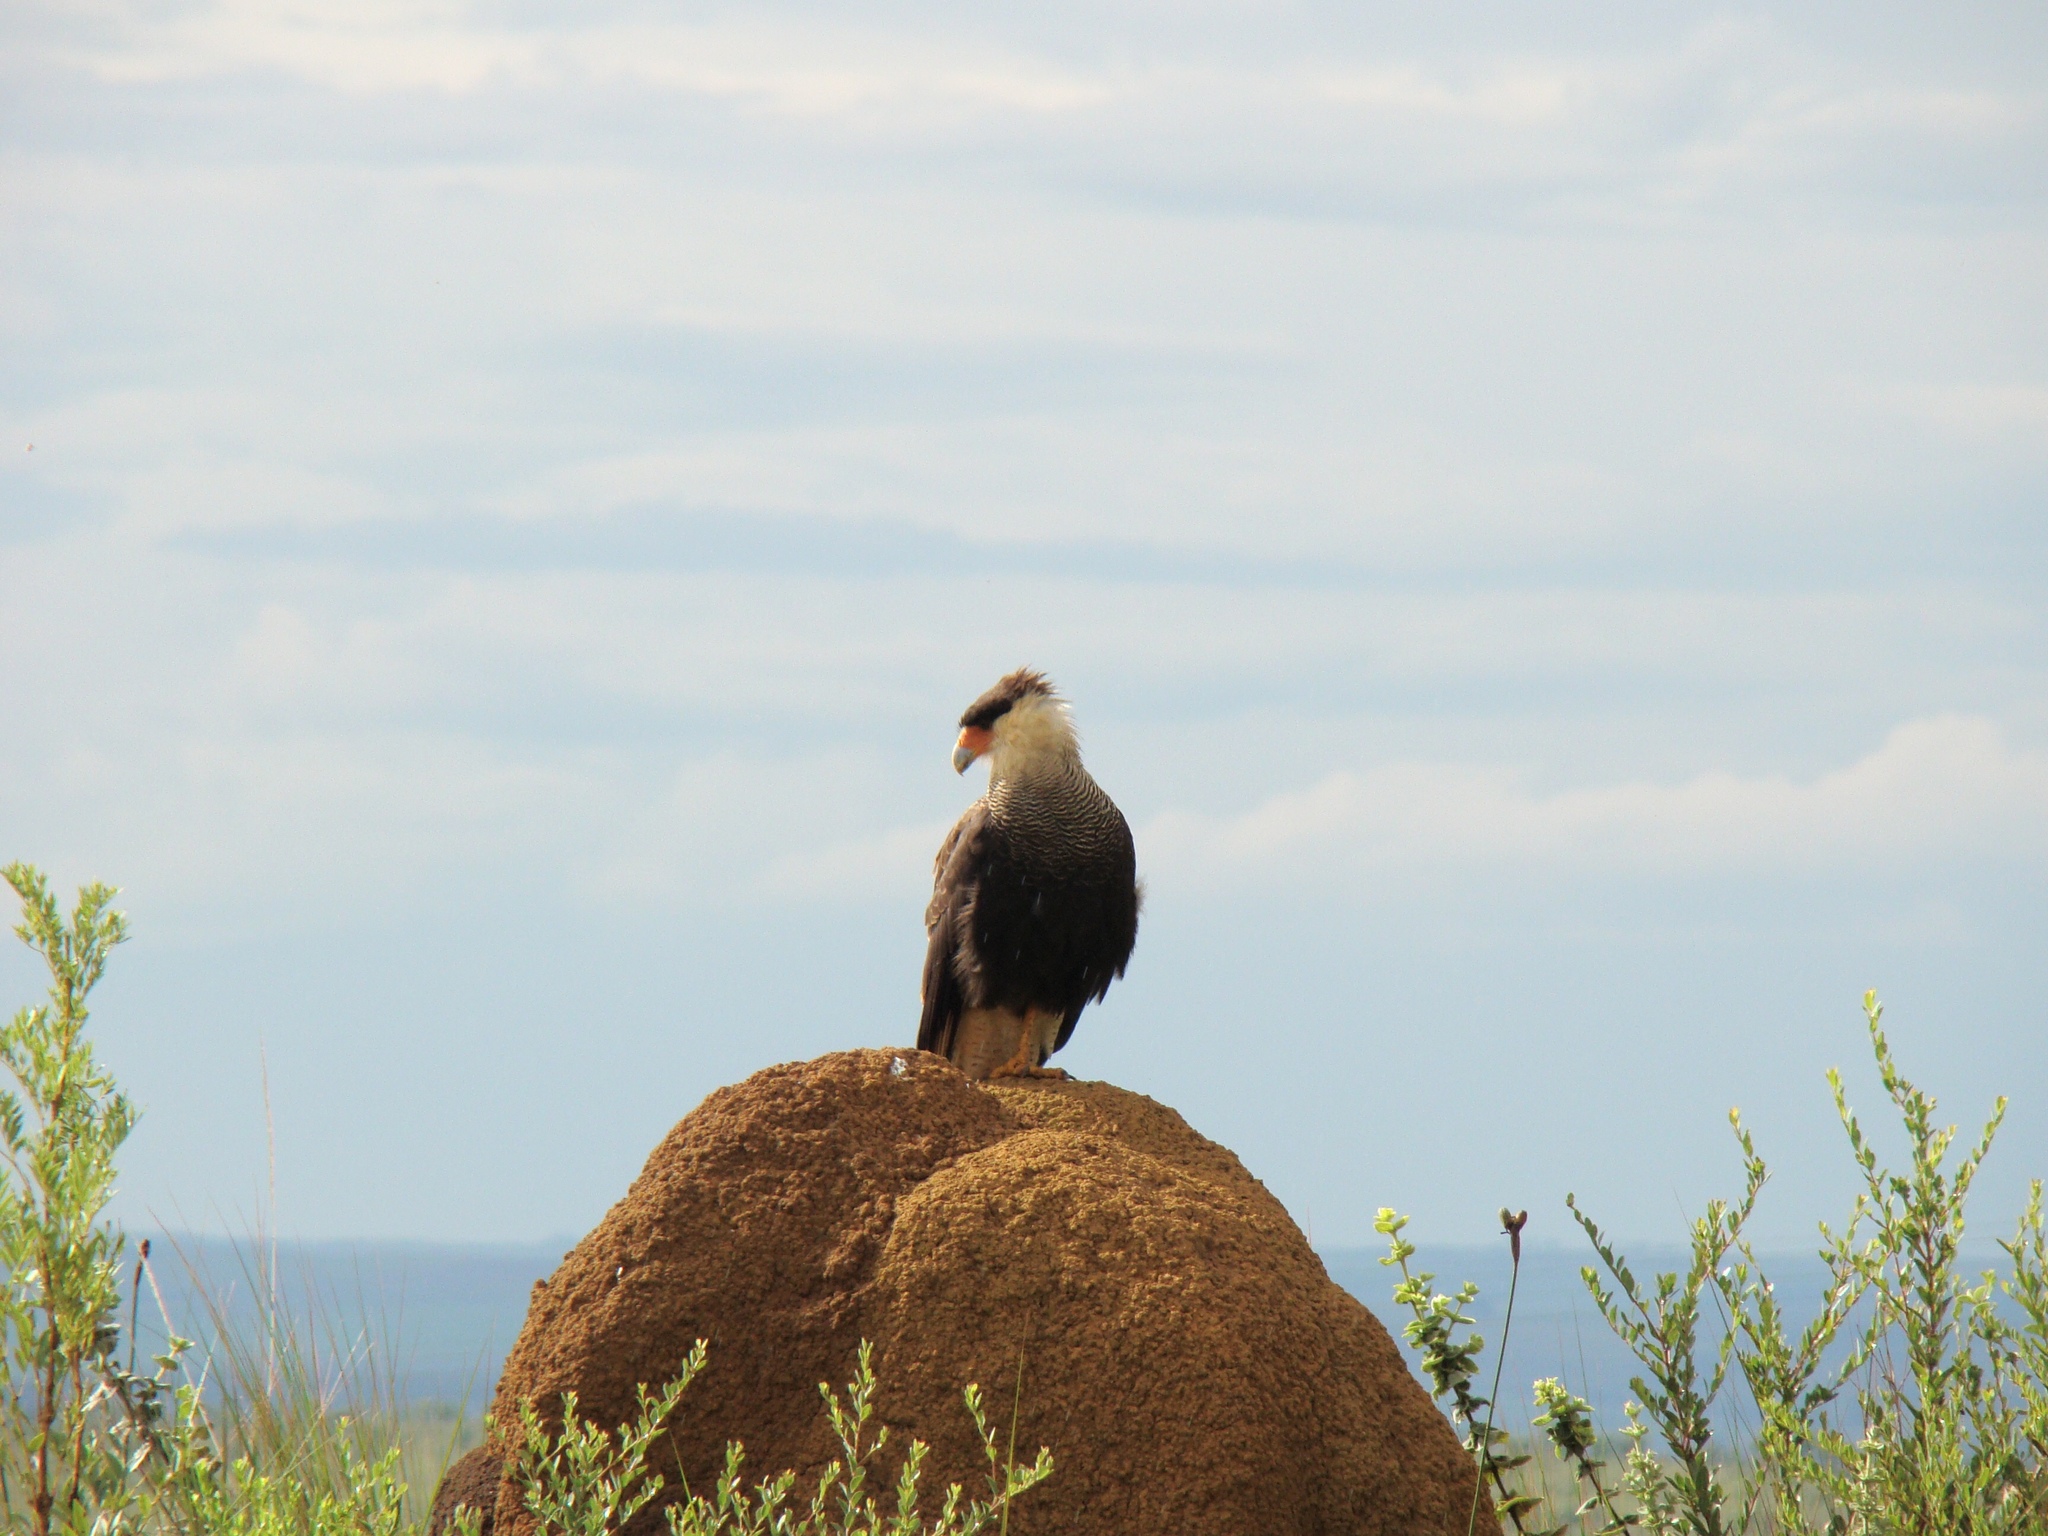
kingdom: Animalia
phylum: Chordata
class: Aves
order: Falconiformes
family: Falconidae
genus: Caracara
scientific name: Caracara plancus
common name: Southern caracara
